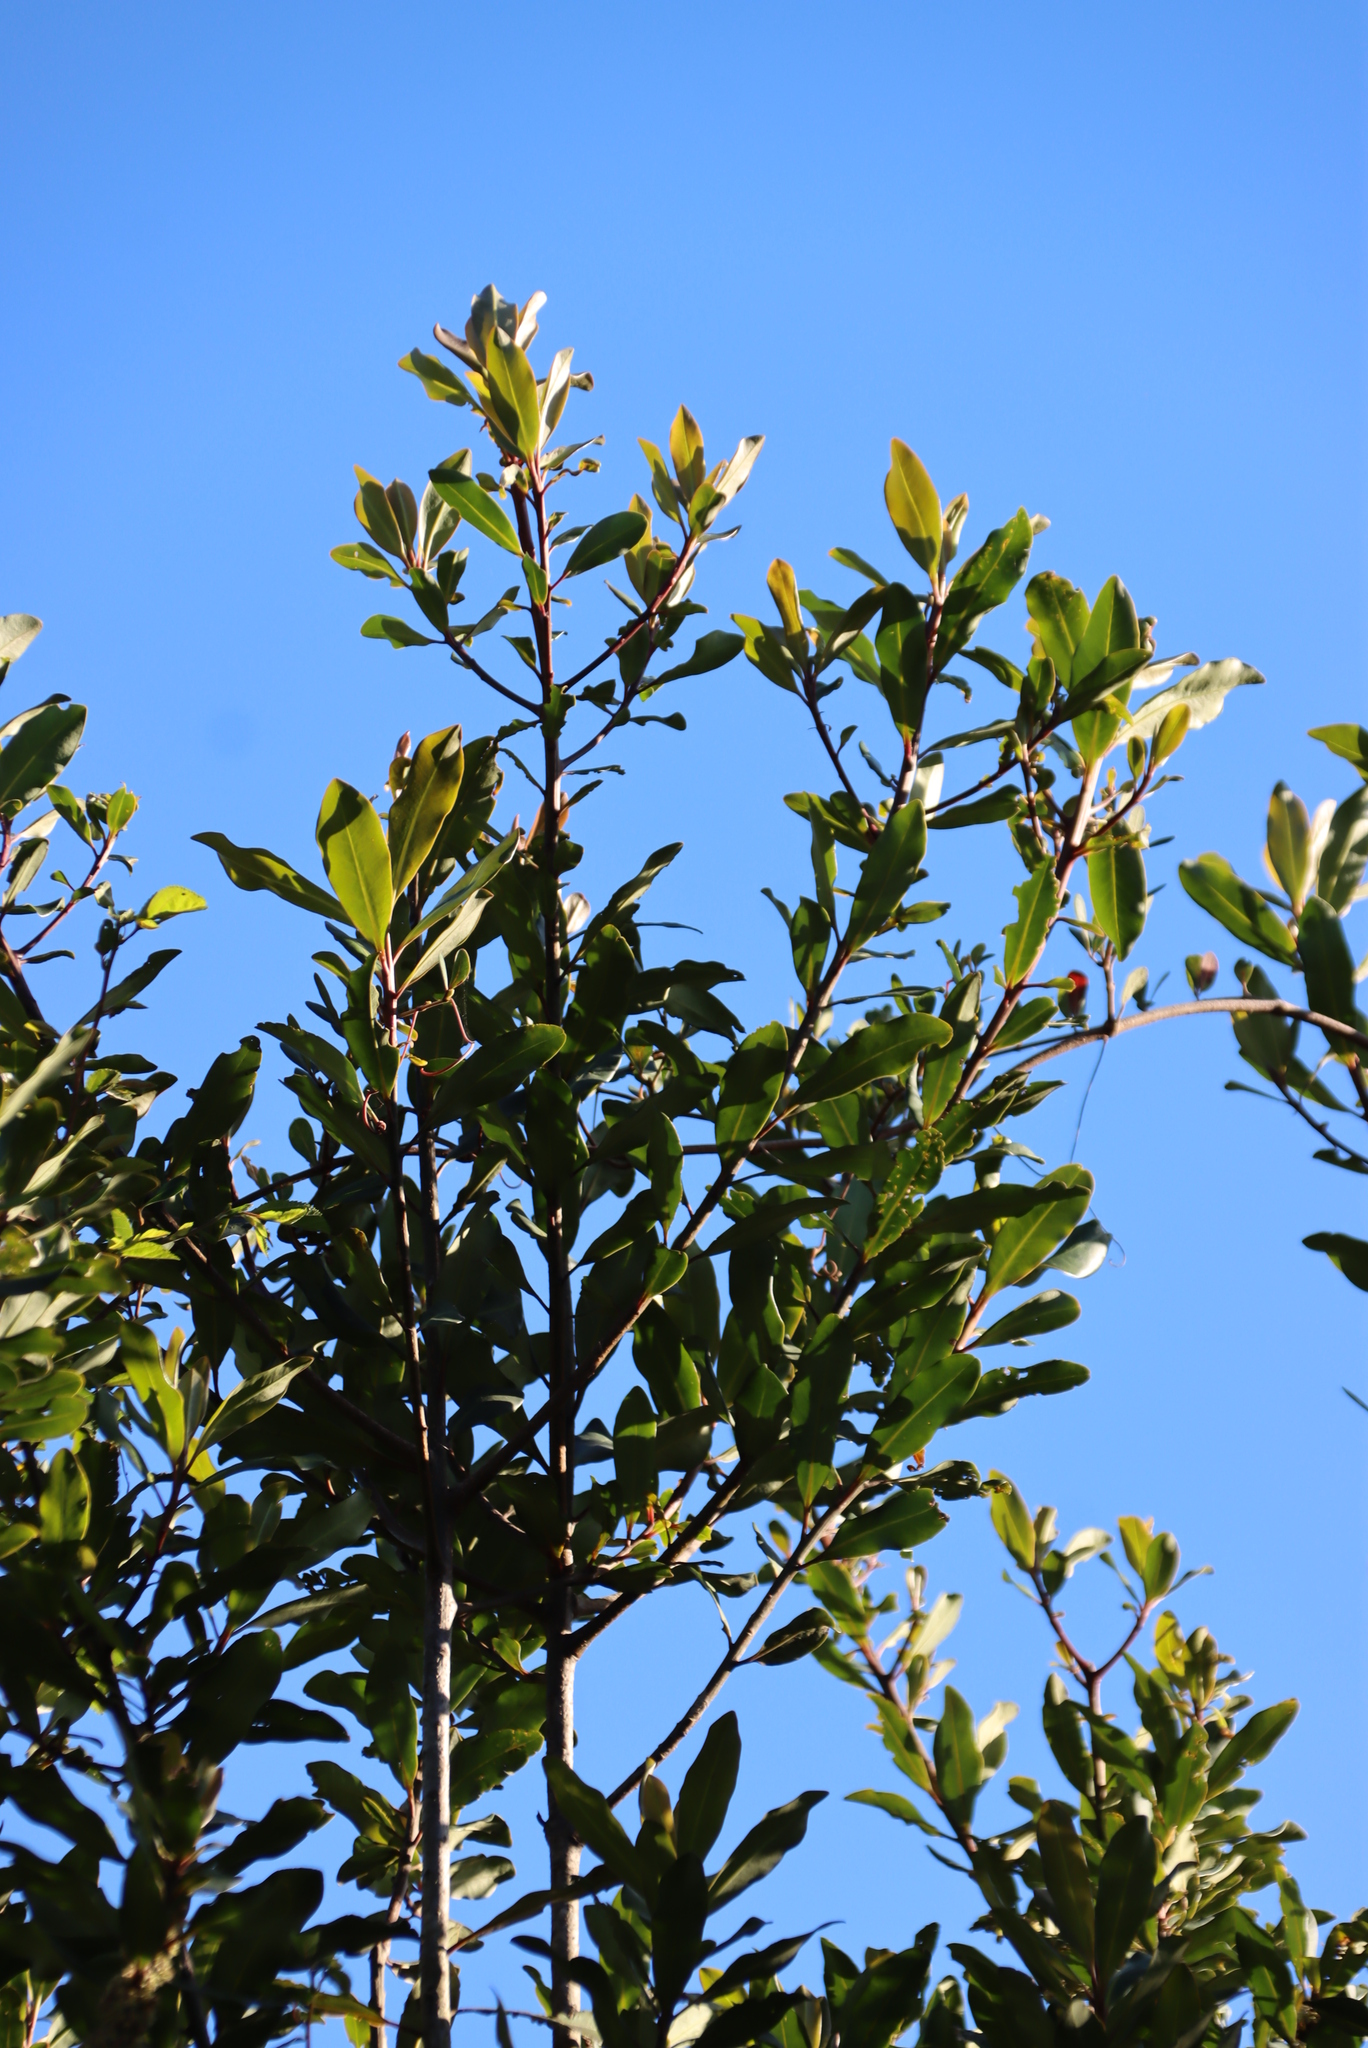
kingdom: Plantae
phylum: Tracheophyta
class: Magnoliopsida
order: Ericales
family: Primulaceae
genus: Myrsine
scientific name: Myrsine melanophloeos
